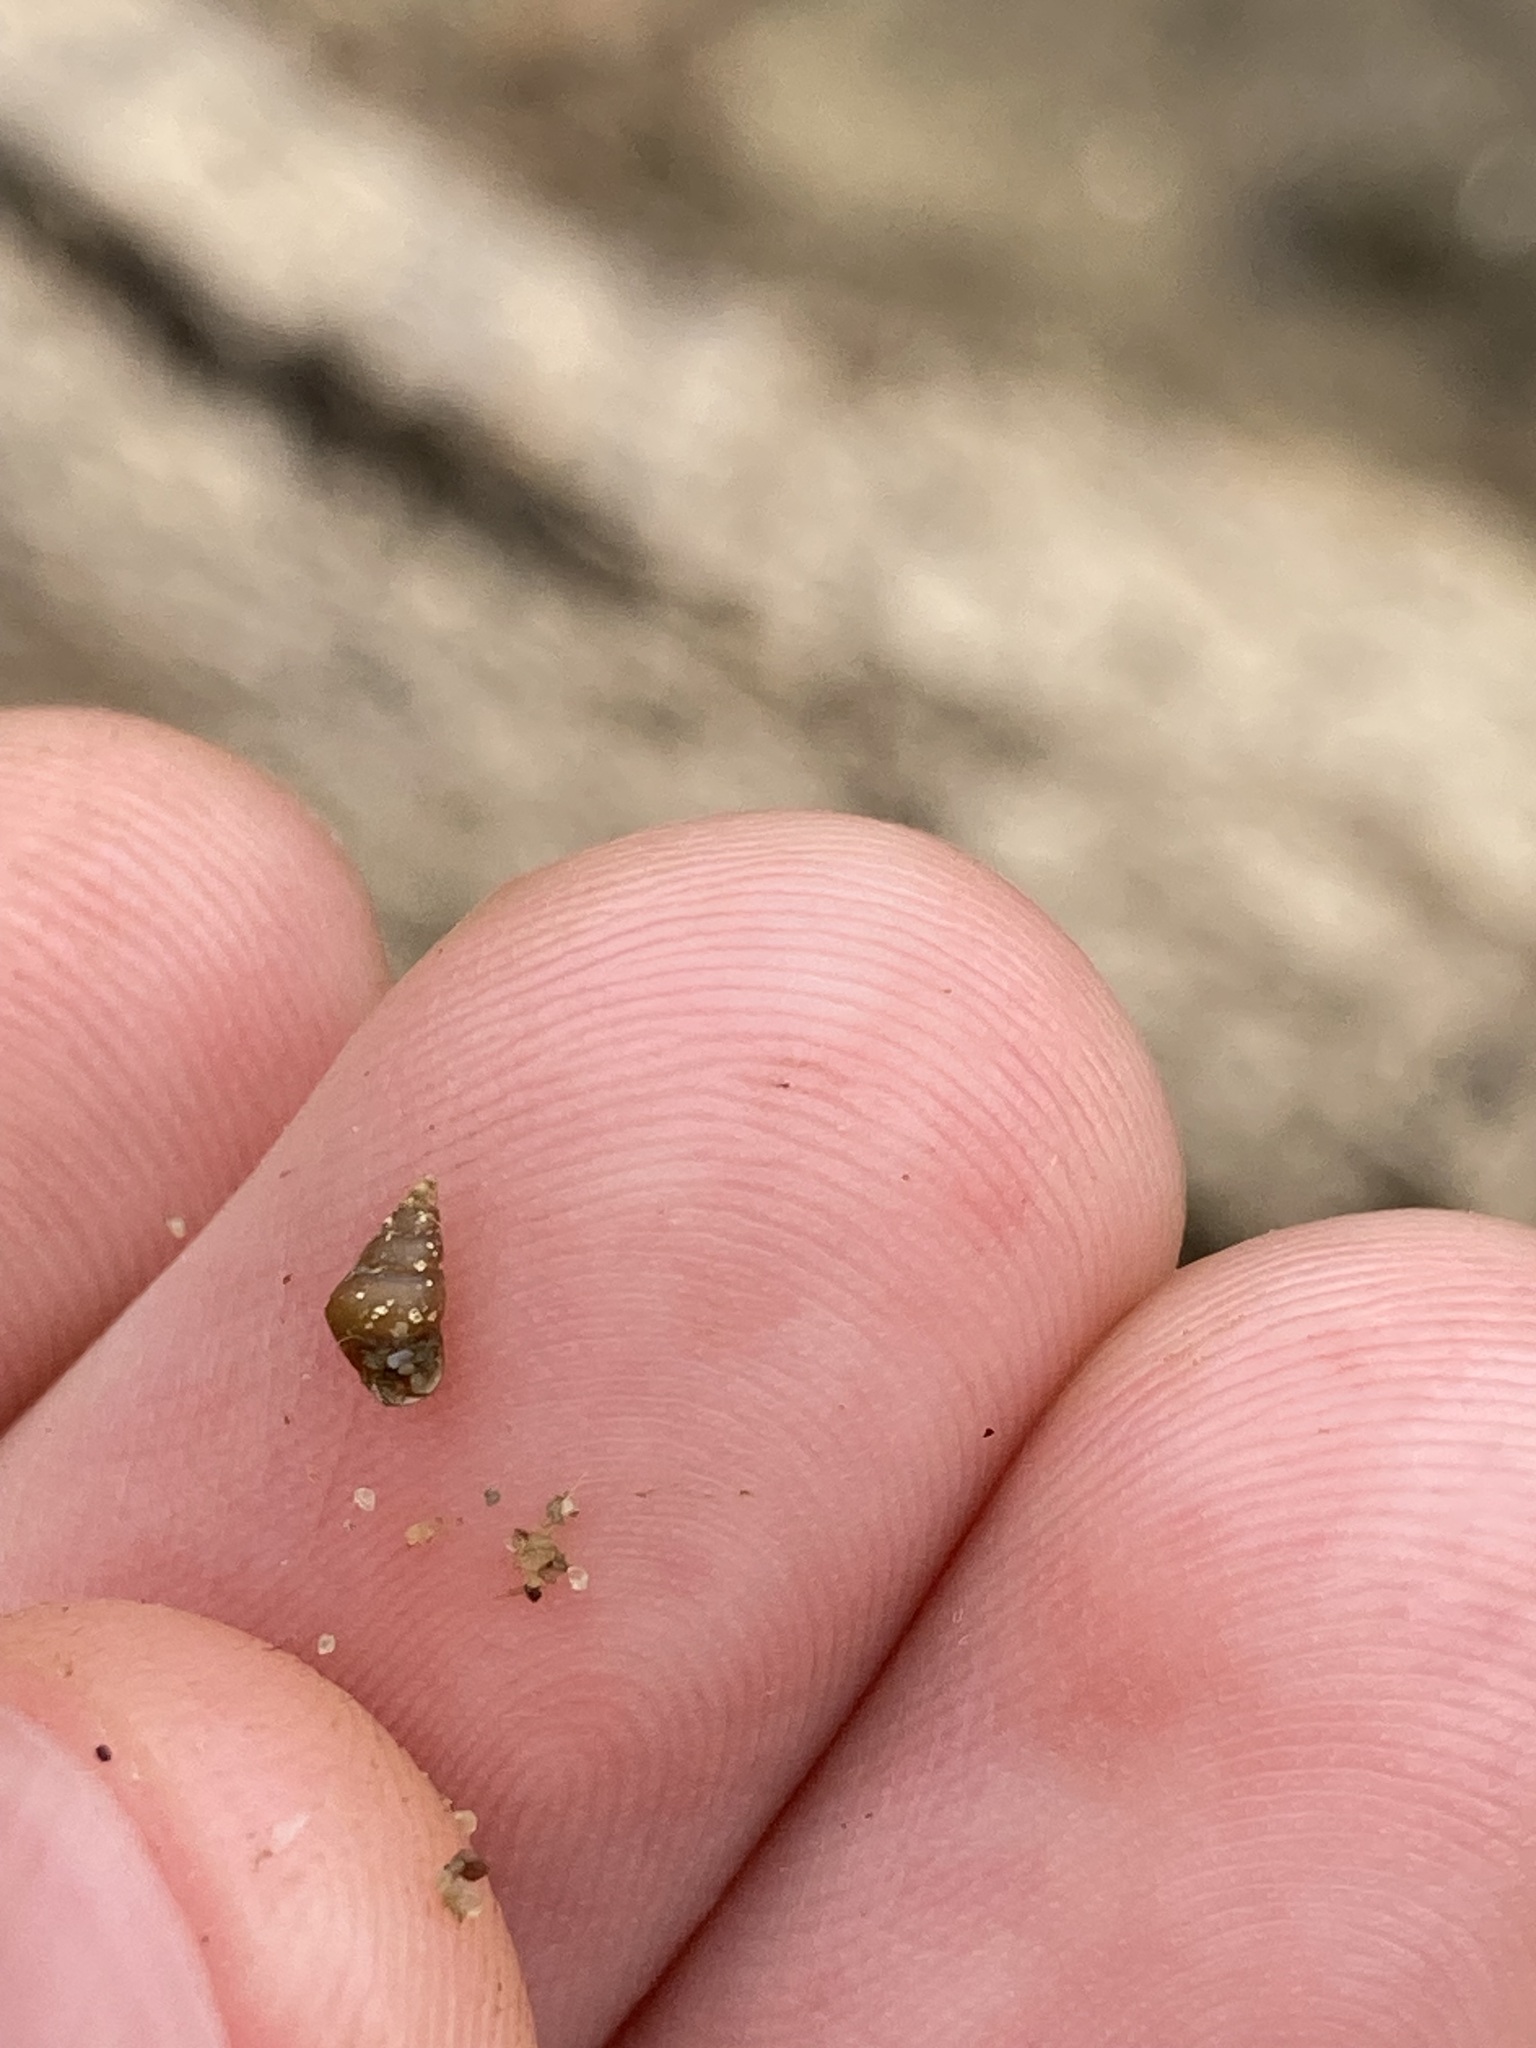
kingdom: Animalia
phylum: Mollusca
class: Gastropoda
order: Littorinimorpha
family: Tateidae
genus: Tatea
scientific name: Tatea huonensis
